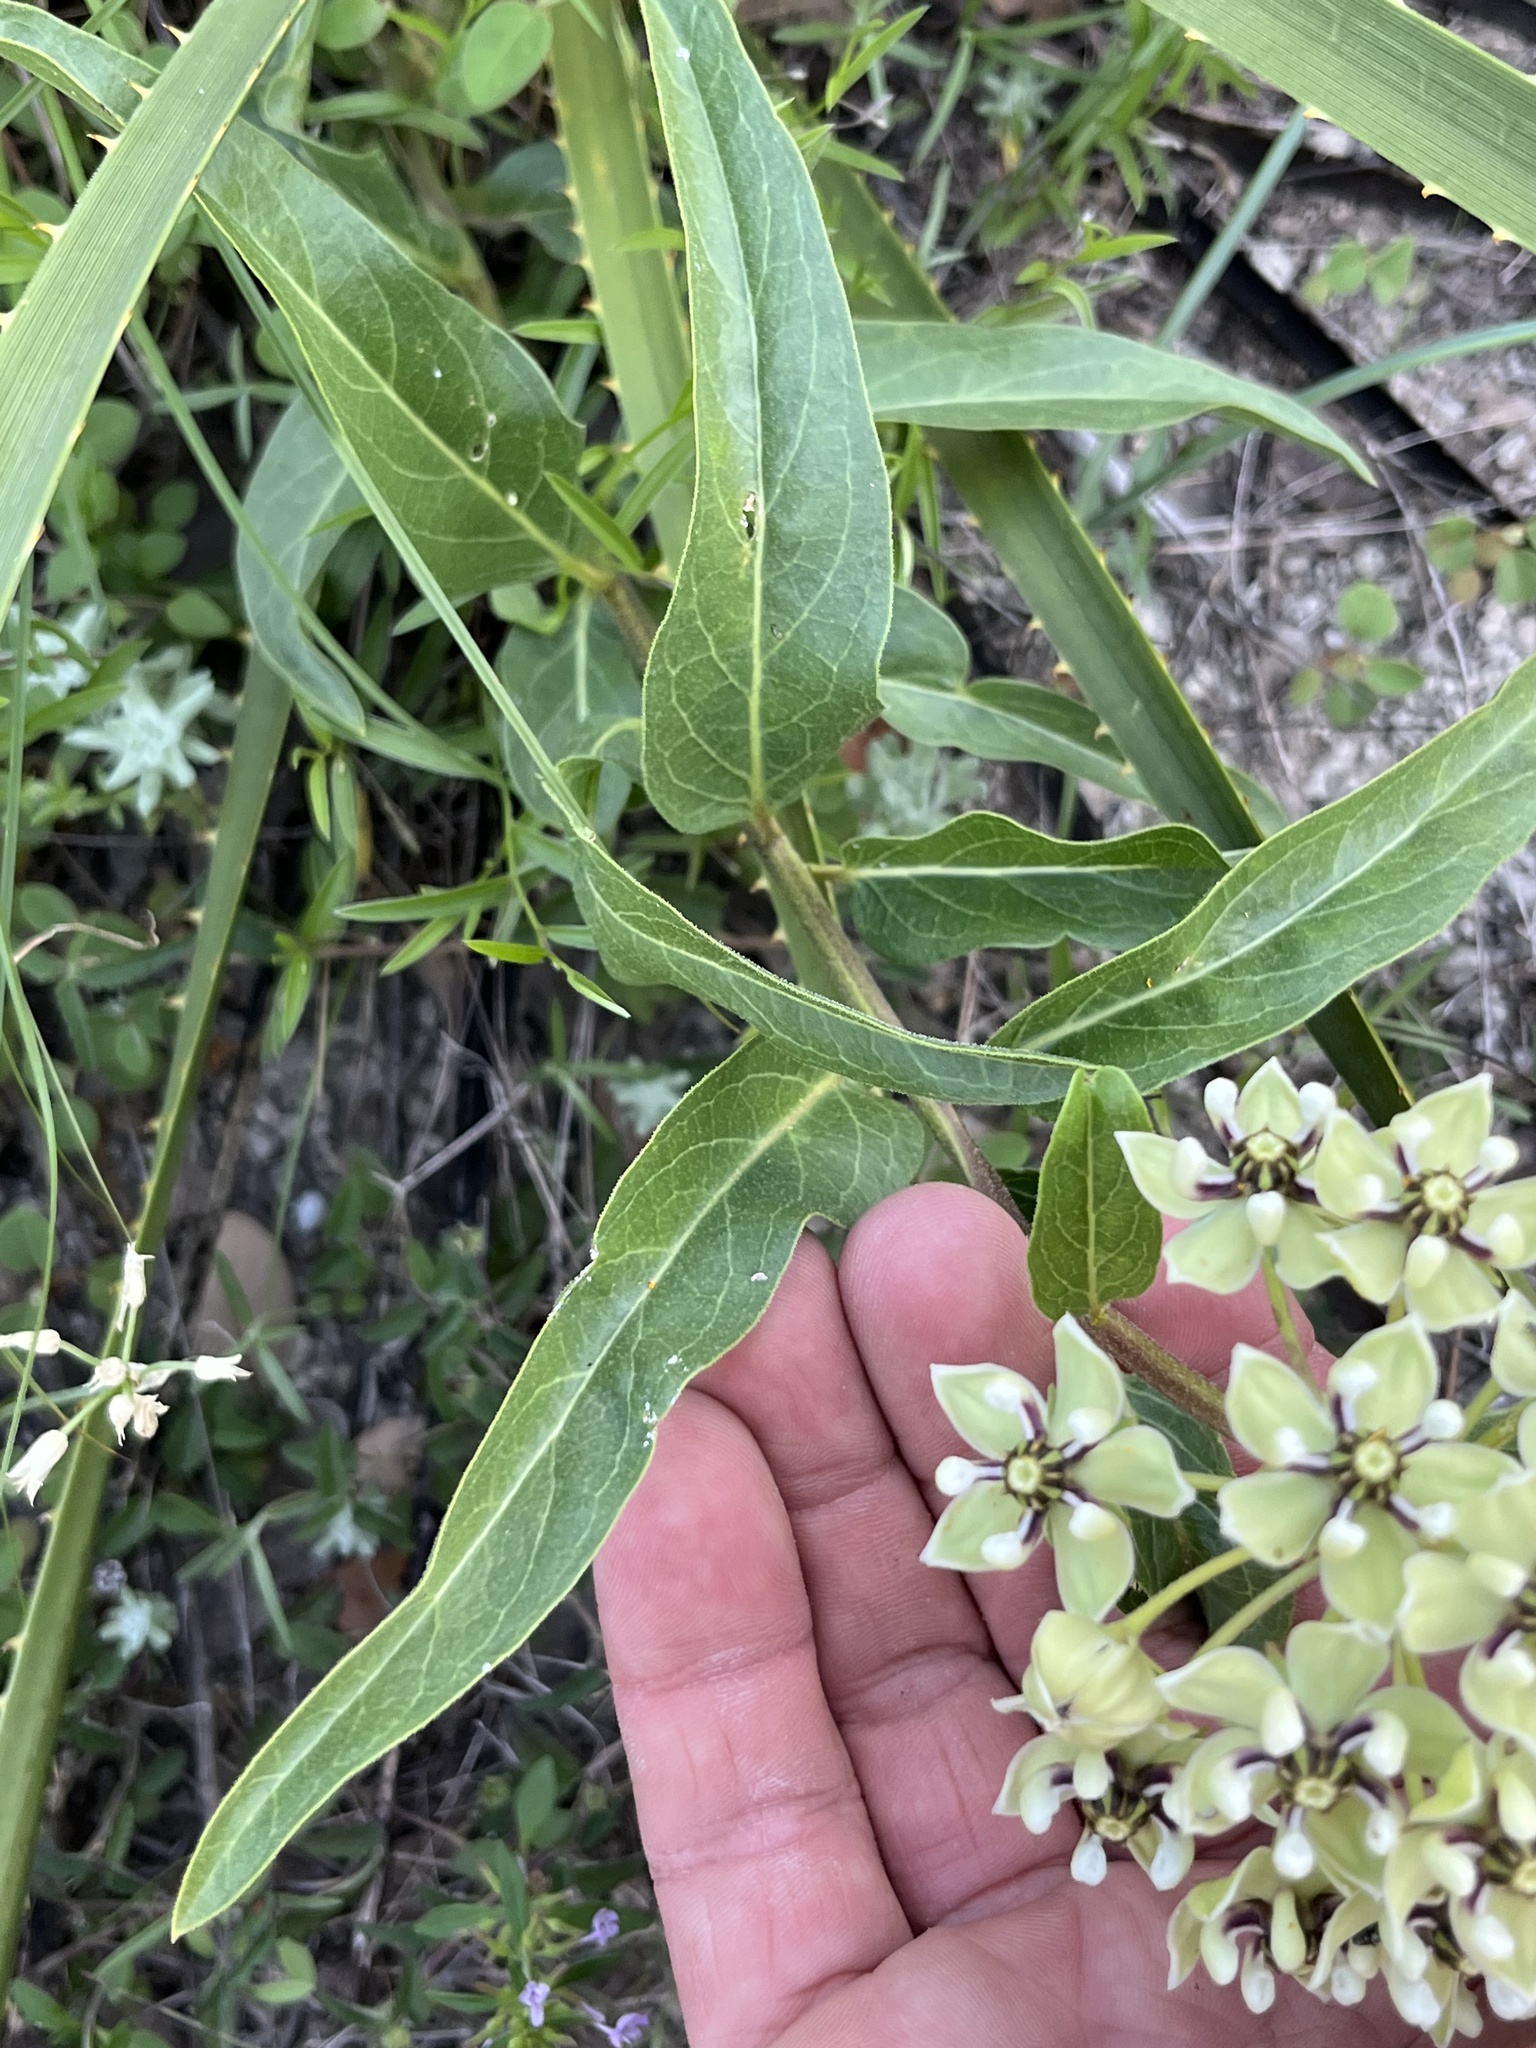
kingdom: Plantae
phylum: Tracheophyta
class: Magnoliopsida
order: Gentianales
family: Apocynaceae
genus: Asclepias
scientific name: Asclepias asperula
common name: Antelope horns
